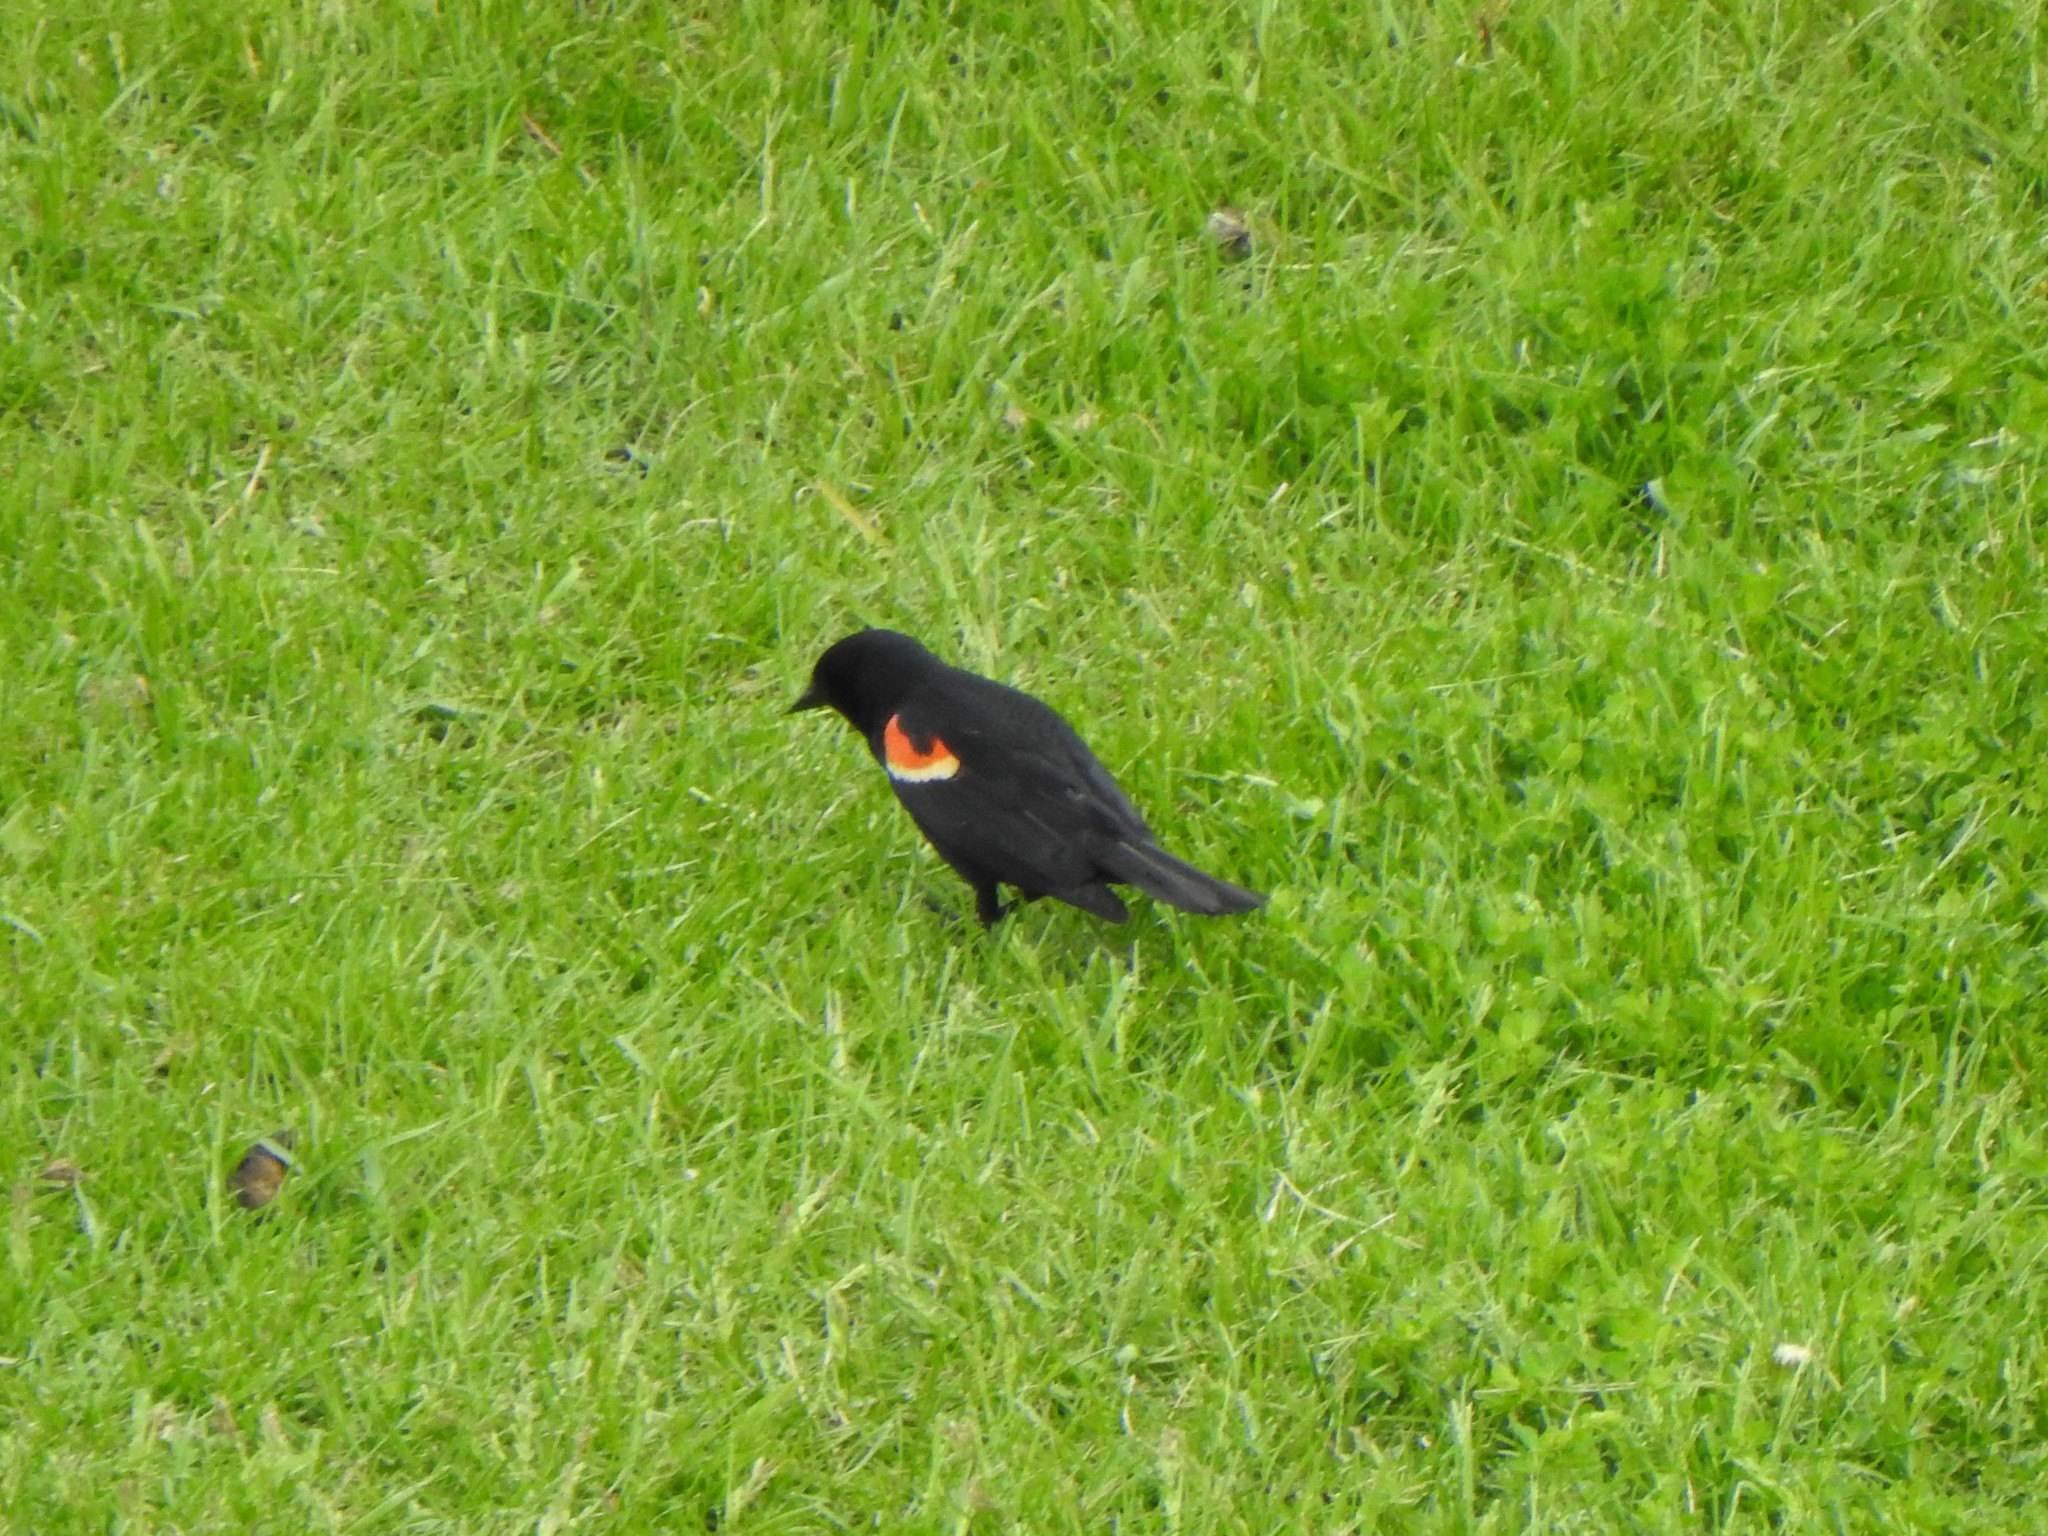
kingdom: Animalia
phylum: Chordata
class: Aves
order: Passeriformes
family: Icteridae
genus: Agelaius
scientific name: Agelaius phoeniceus
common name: Red-winged blackbird
